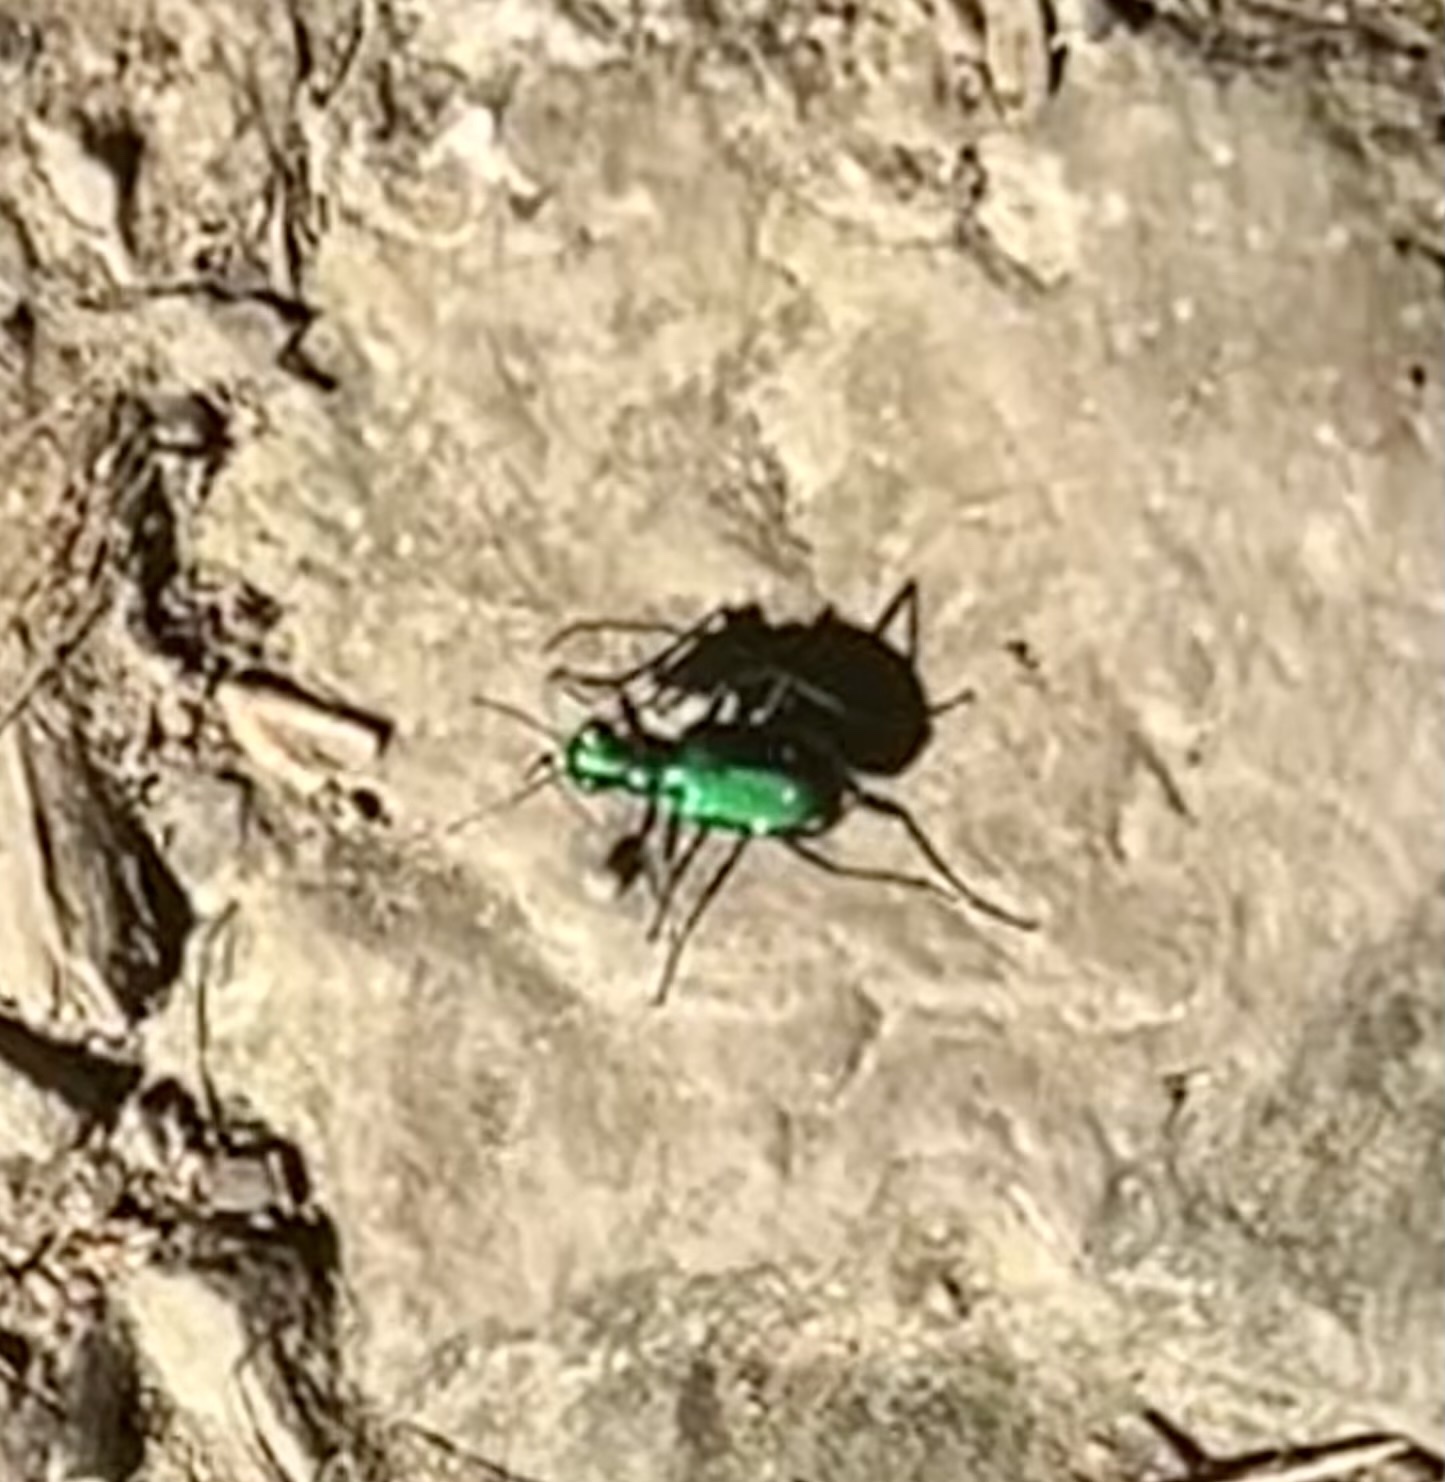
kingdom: Animalia
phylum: Arthropoda
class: Insecta
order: Coleoptera
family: Carabidae
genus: Cicindela
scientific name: Cicindela sexguttata
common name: Six-spotted tiger beetle
